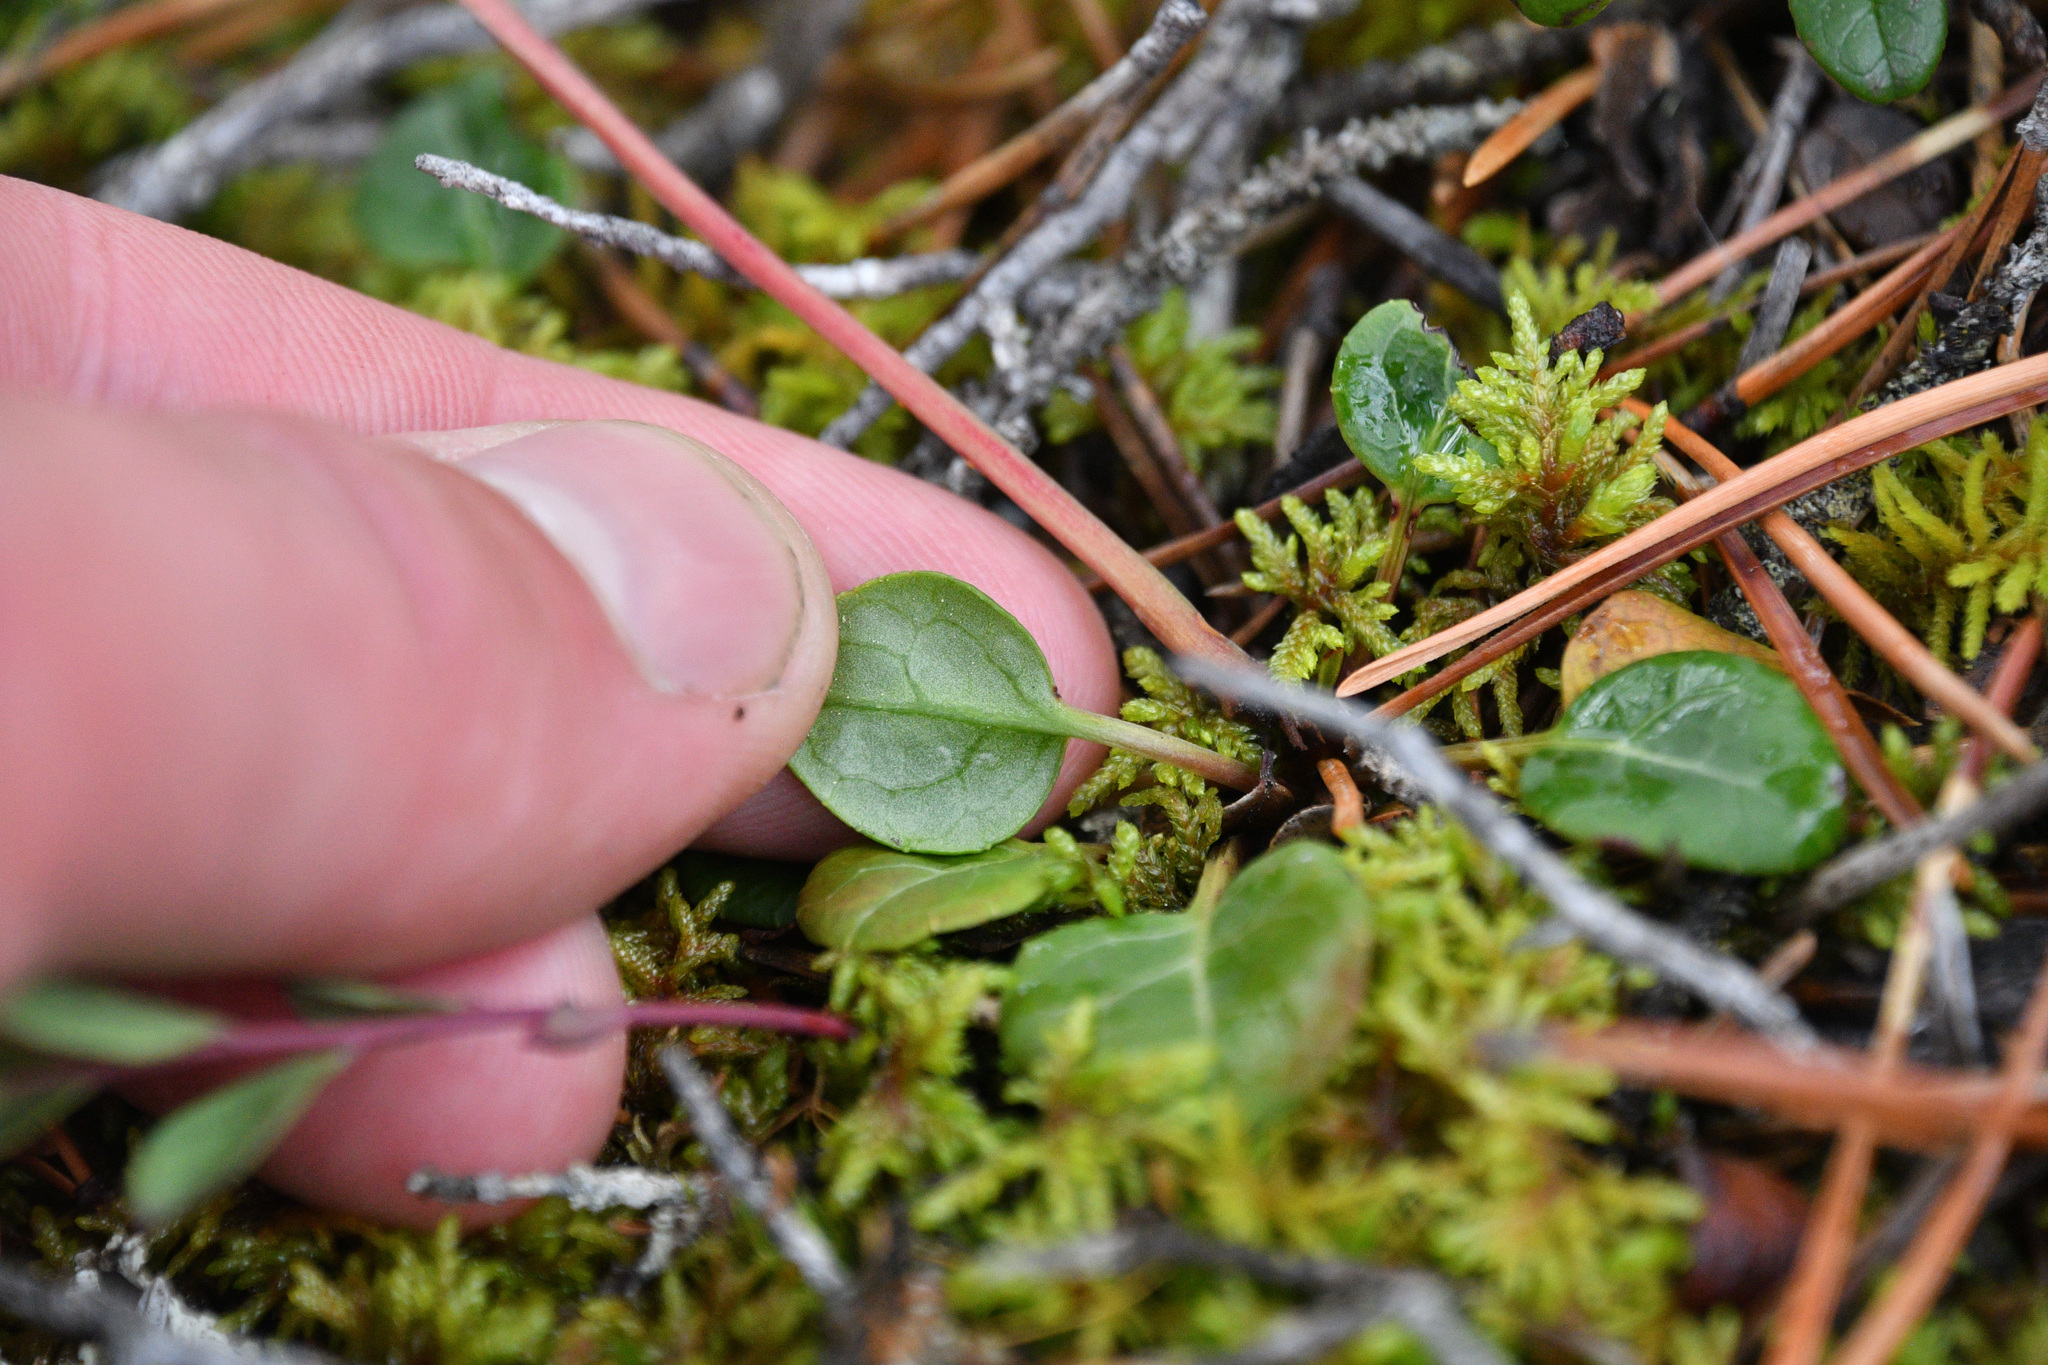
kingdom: Plantae
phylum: Tracheophyta
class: Magnoliopsida
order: Ericales
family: Ericaceae
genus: Pyrola
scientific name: Pyrola chlorantha
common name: Green wintergreen
